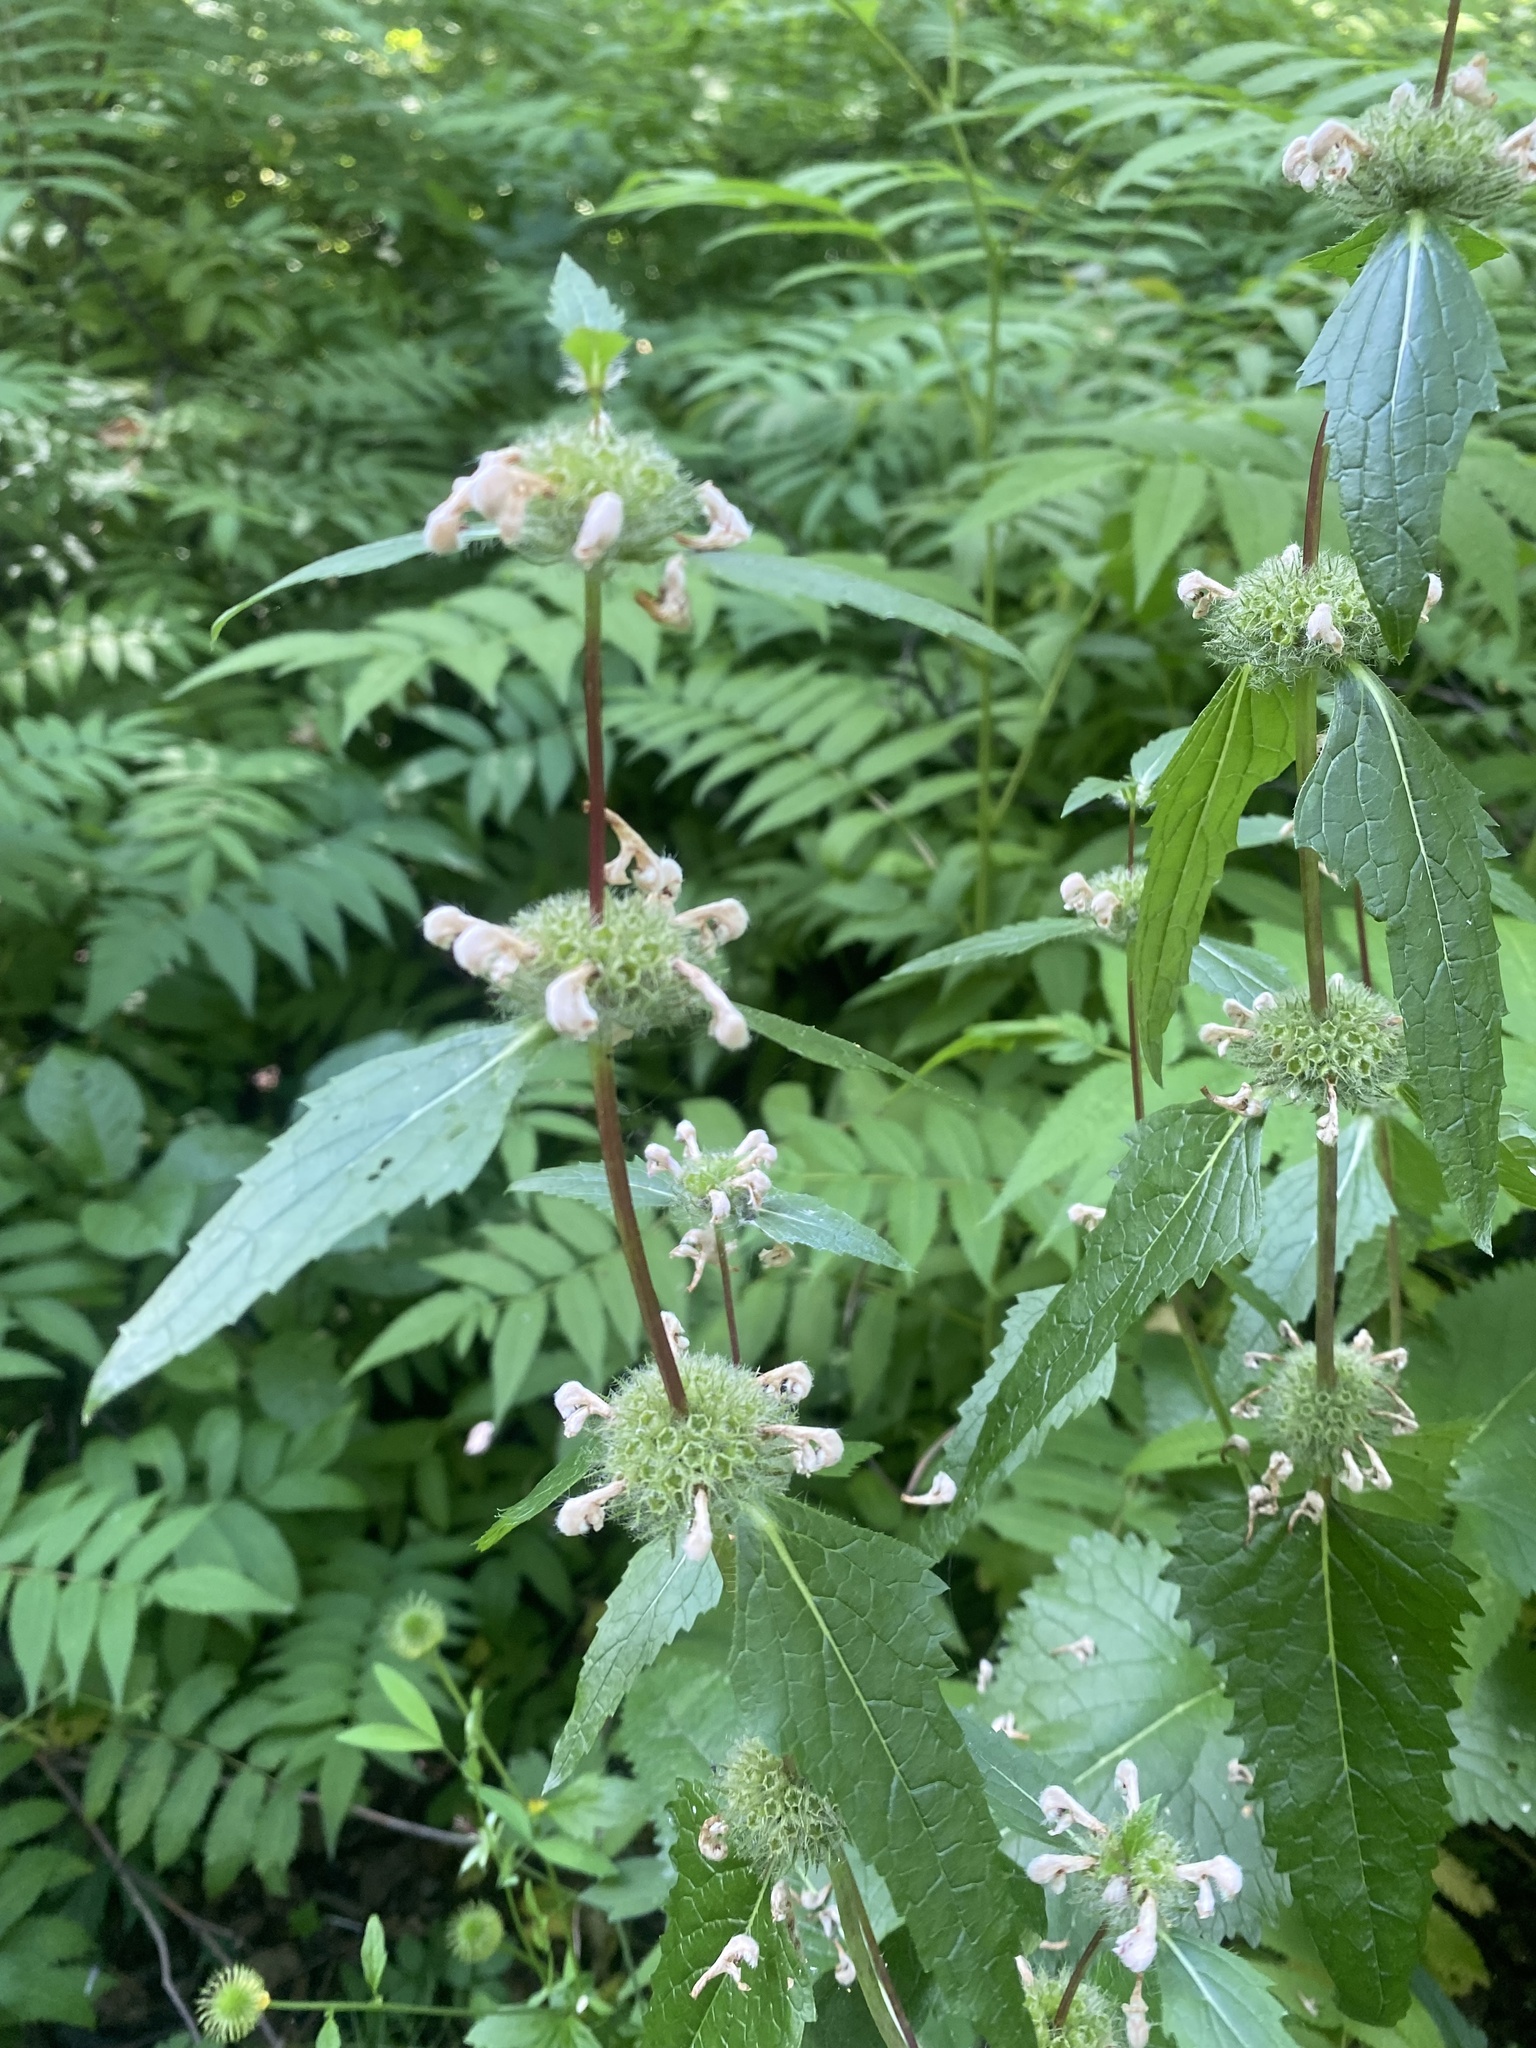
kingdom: Plantae
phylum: Tracheophyta
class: Magnoliopsida
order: Lamiales
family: Lamiaceae
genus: Phlomoides
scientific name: Phlomoides tuberosa
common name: Tuberous jerusalem sage
